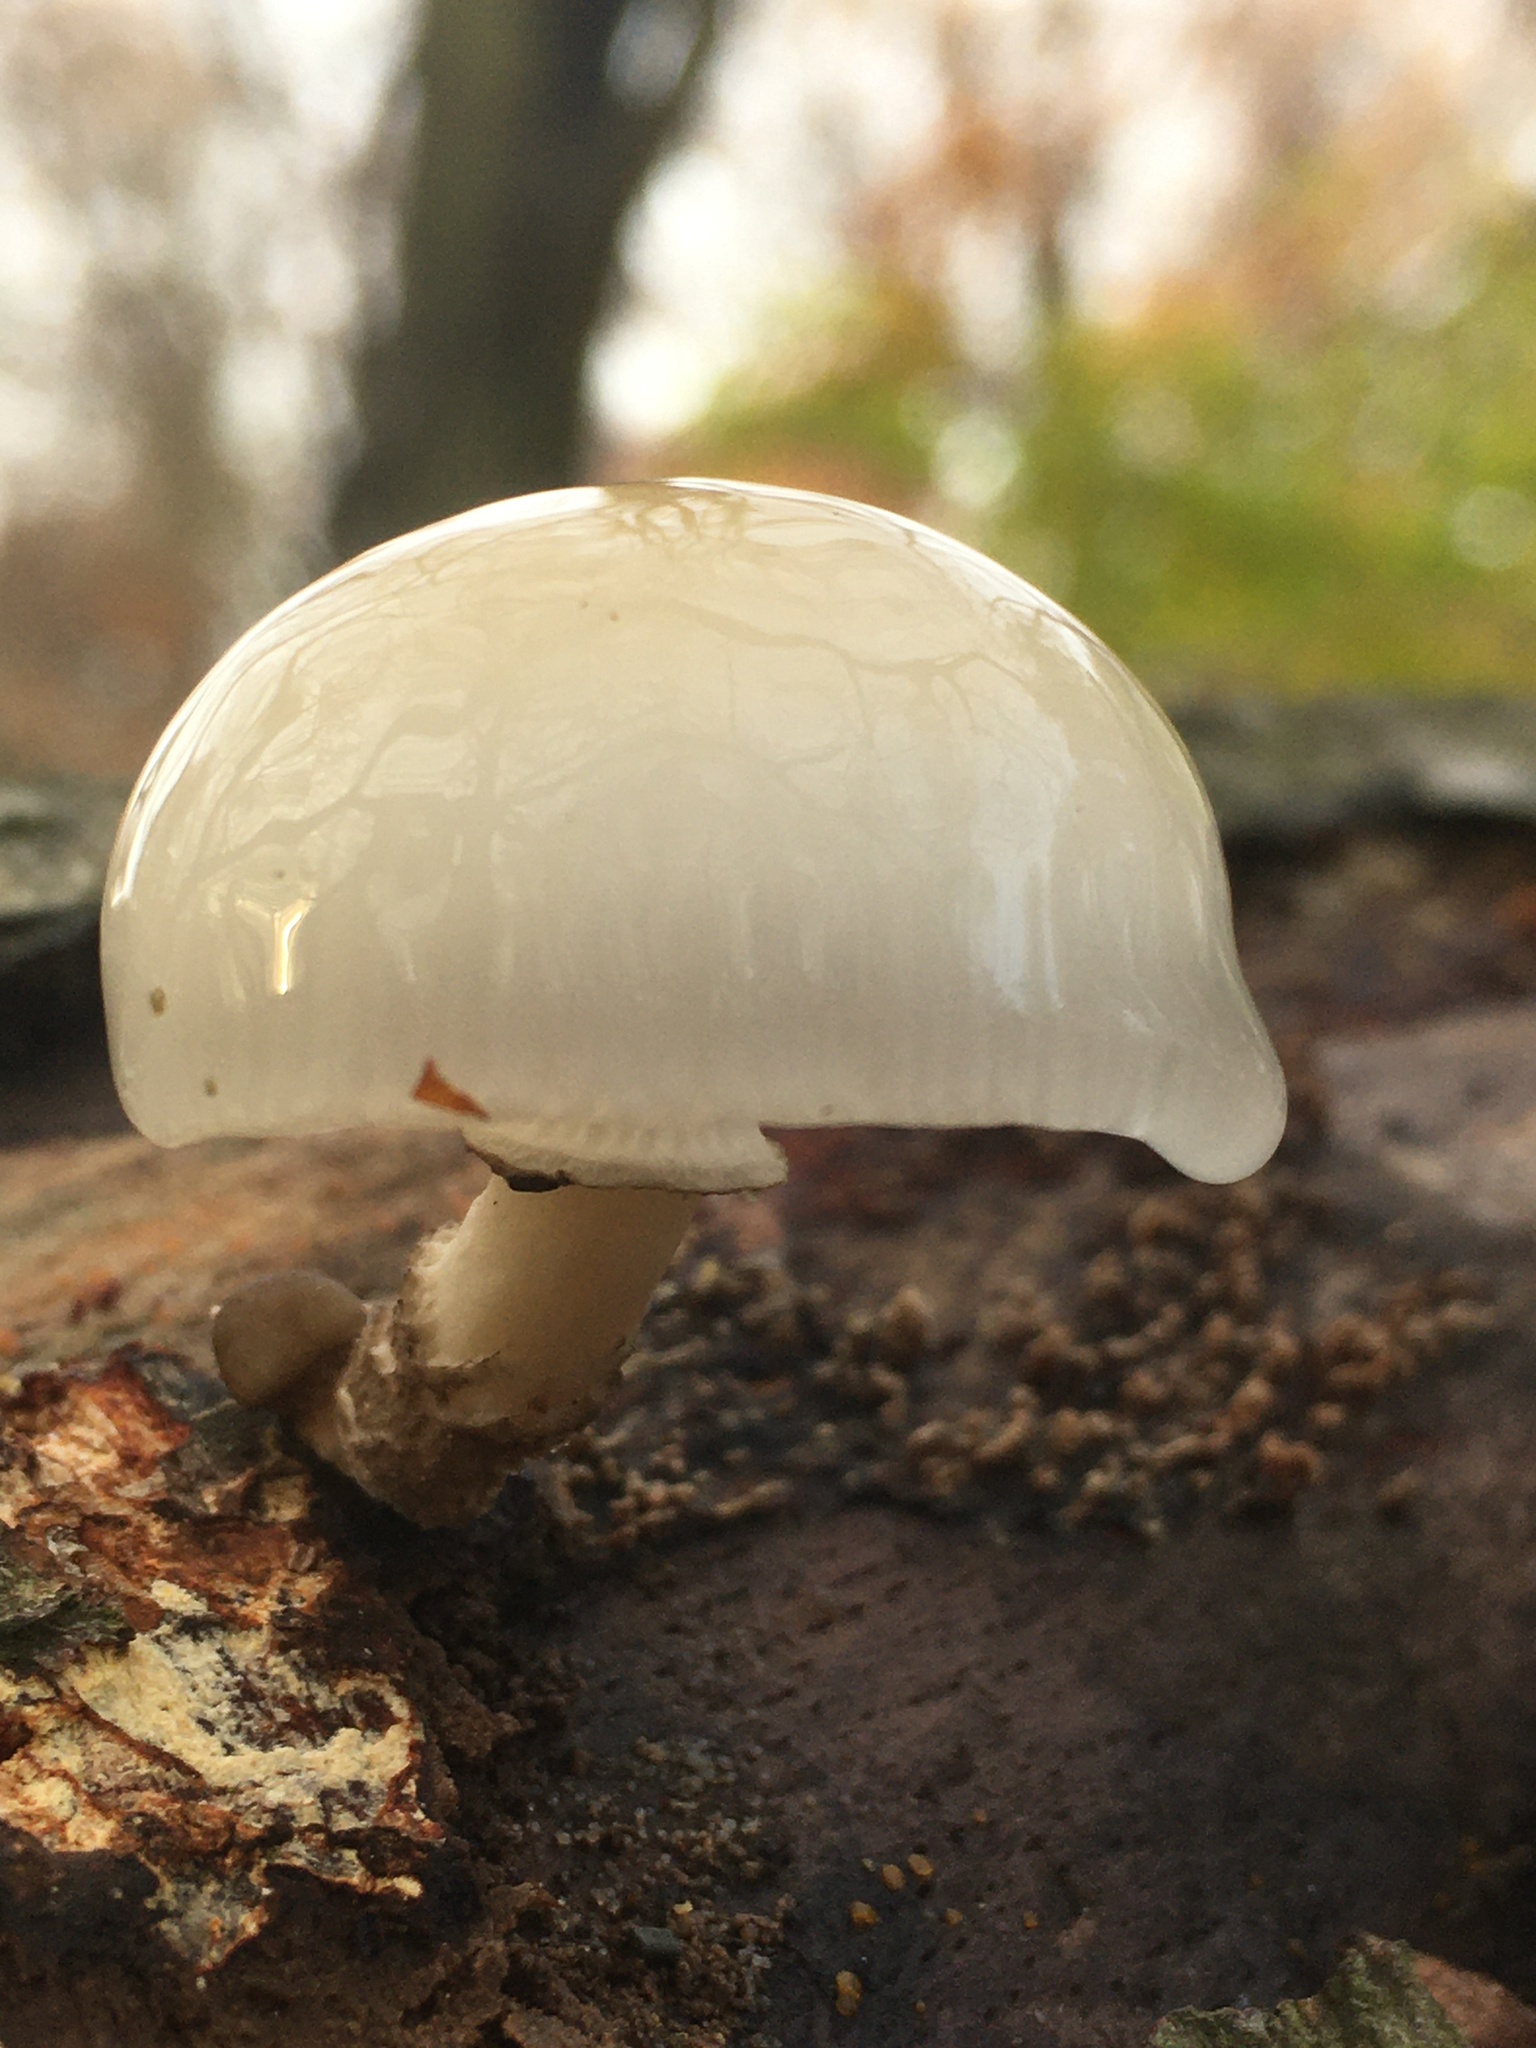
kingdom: Fungi
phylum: Basidiomycota
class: Agaricomycetes
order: Agaricales
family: Physalacriaceae
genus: Mucidula
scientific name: Mucidula mucida
